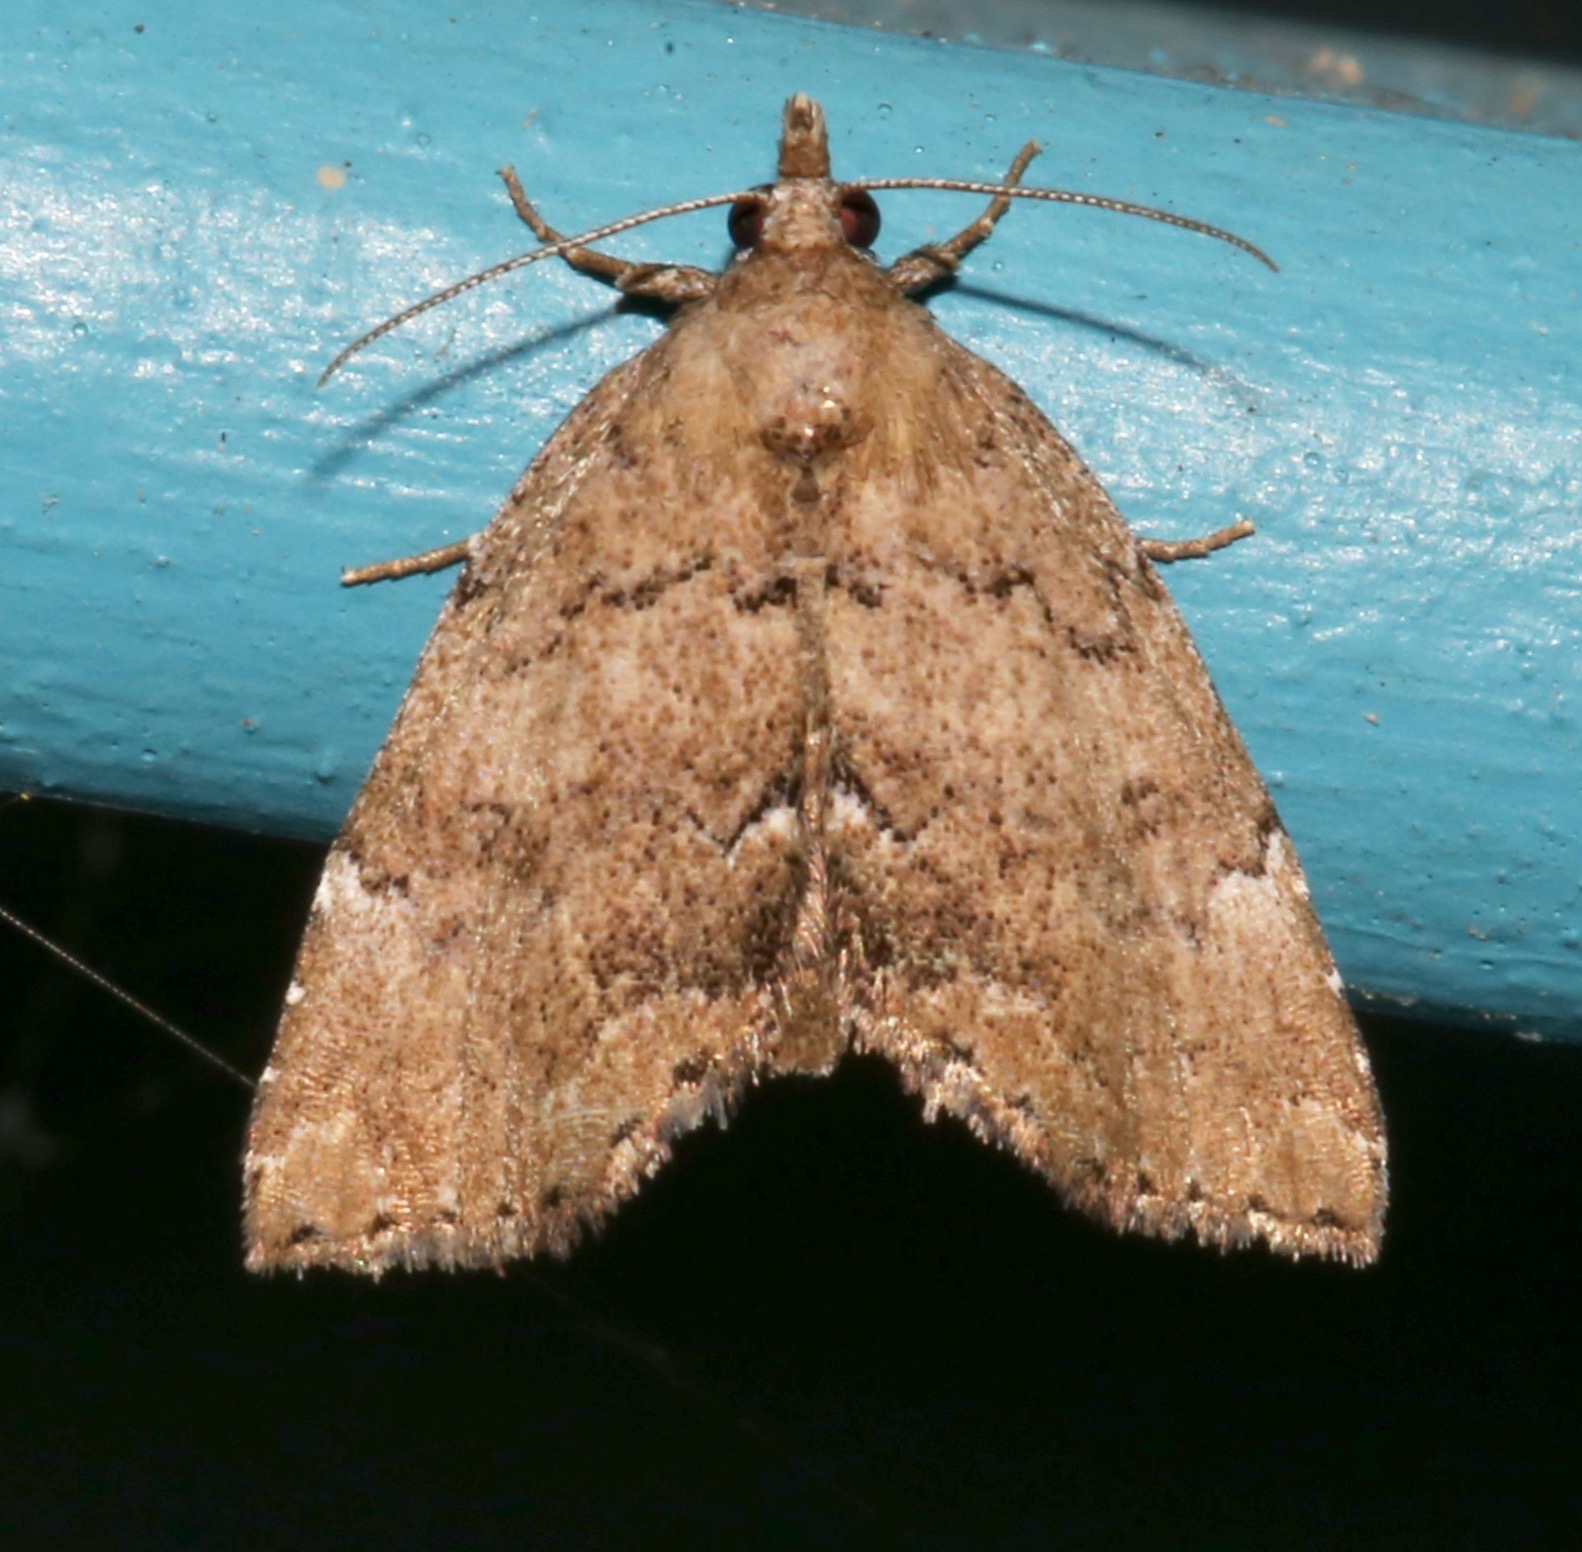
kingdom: Animalia
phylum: Arthropoda
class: Insecta
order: Lepidoptera
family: Erebidae
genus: Cutina
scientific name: Cutina aluticolor
